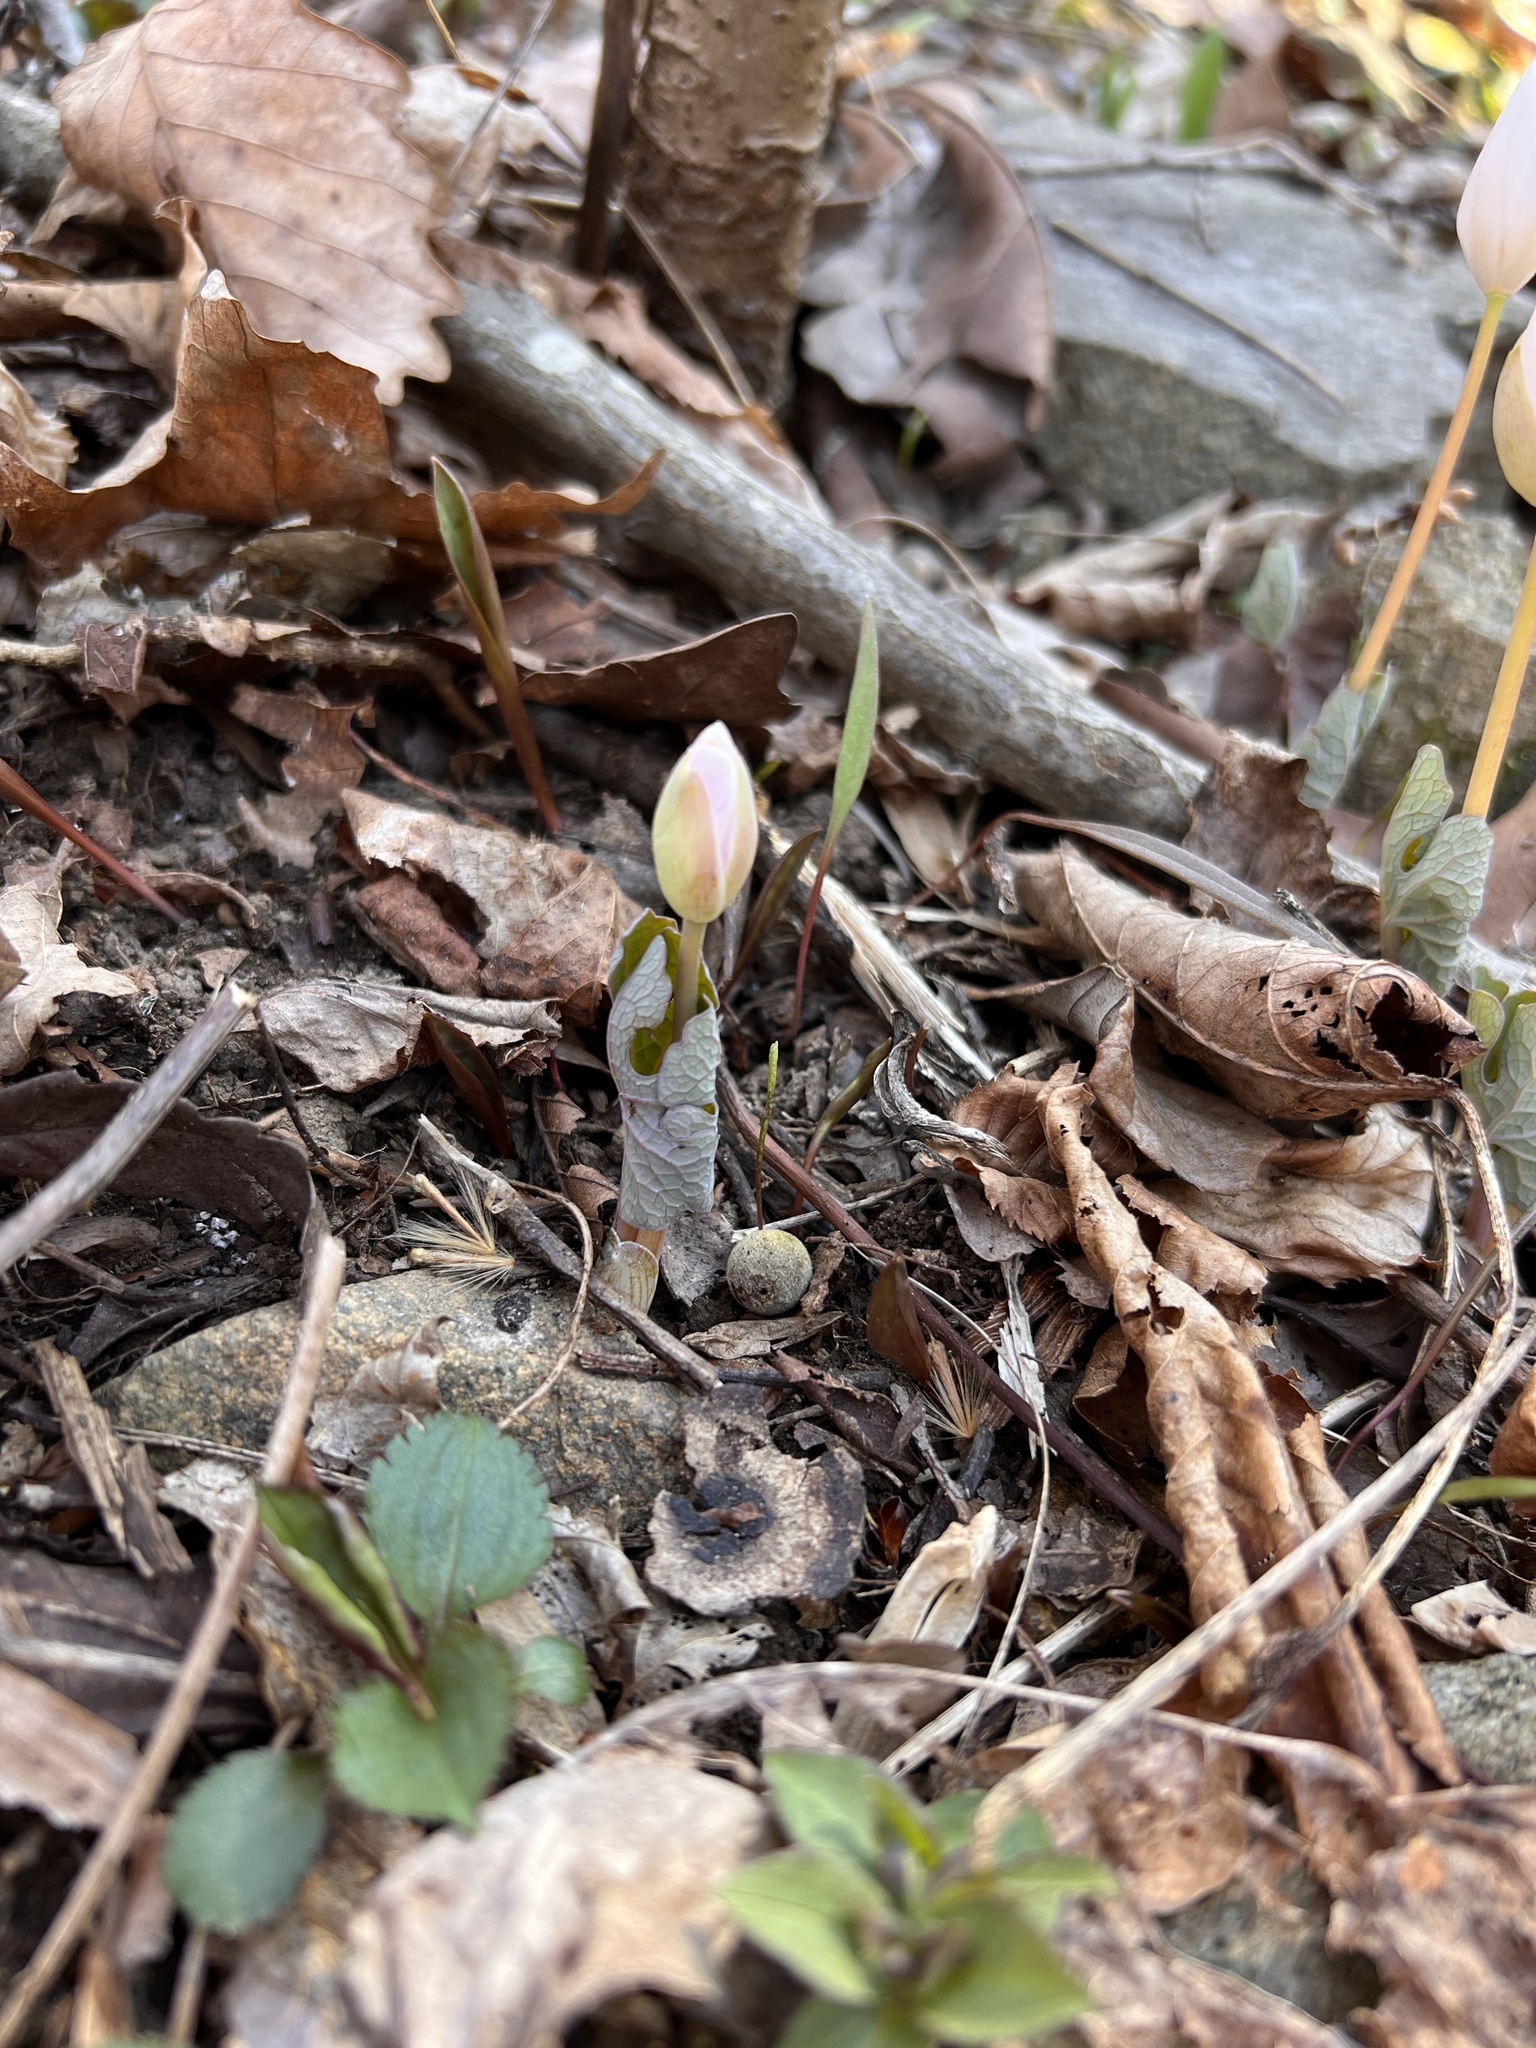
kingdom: Plantae
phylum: Tracheophyta
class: Magnoliopsida
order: Ranunculales
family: Papaveraceae
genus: Sanguinaria
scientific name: Sanguinaria canadensis
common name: Bloodroot
